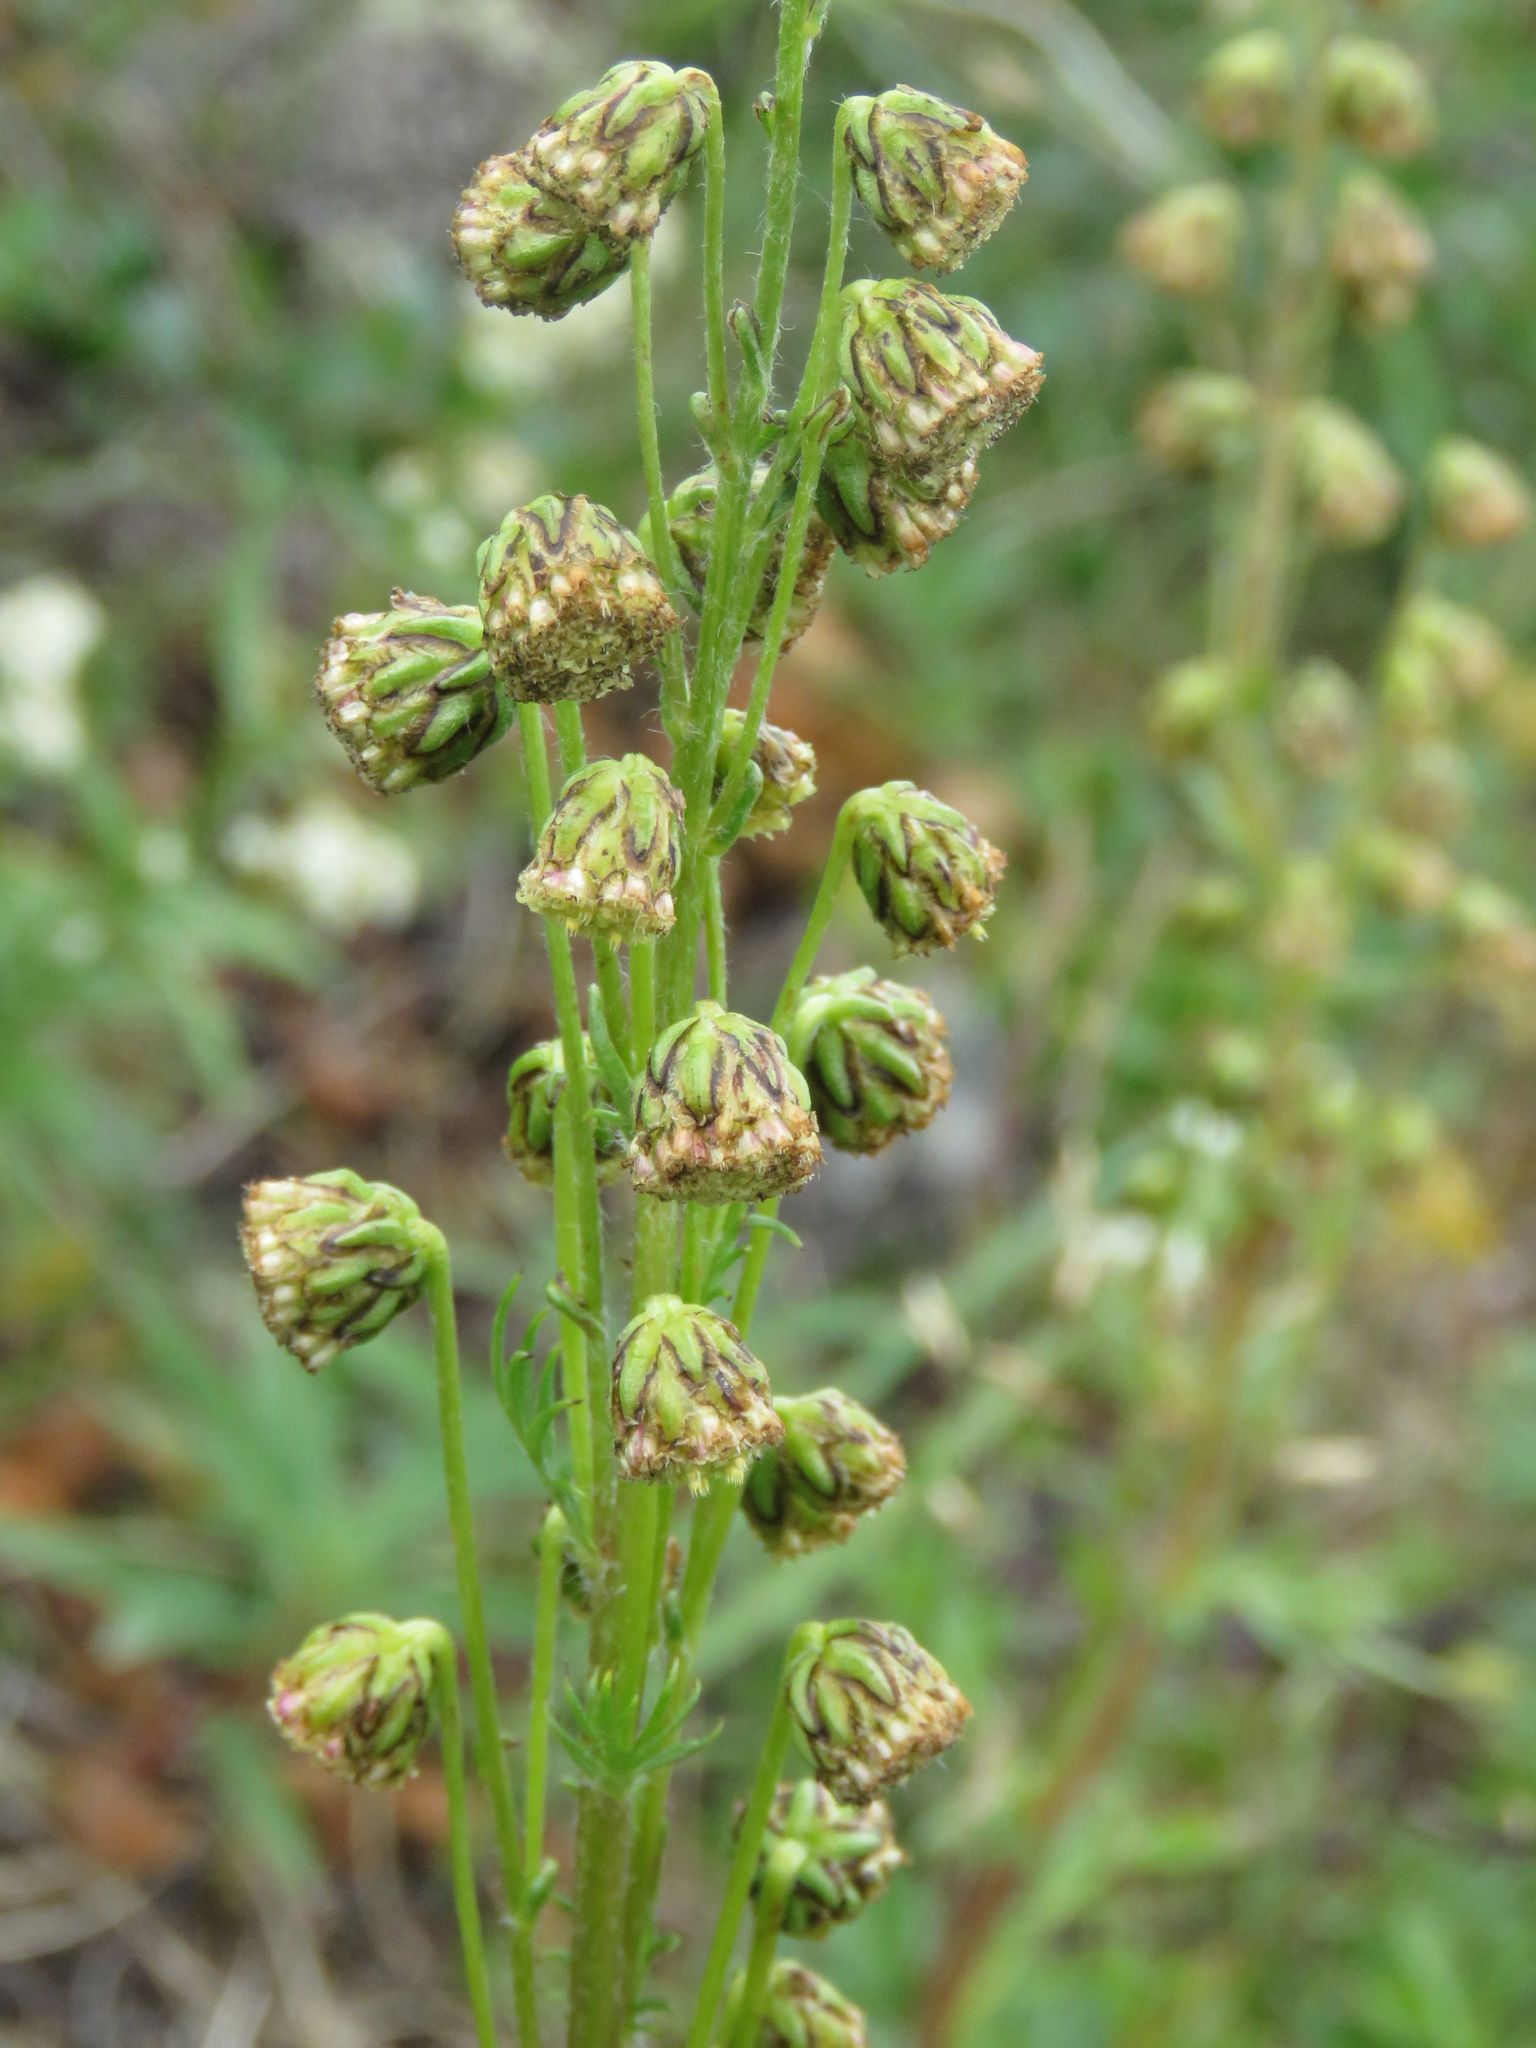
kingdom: Plantae
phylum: Tracheophyta
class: Magnoliopsida
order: Asterales
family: Asteraceae
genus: Artemisia
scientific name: Artemisia norvegica
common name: Norwegian mugwort
